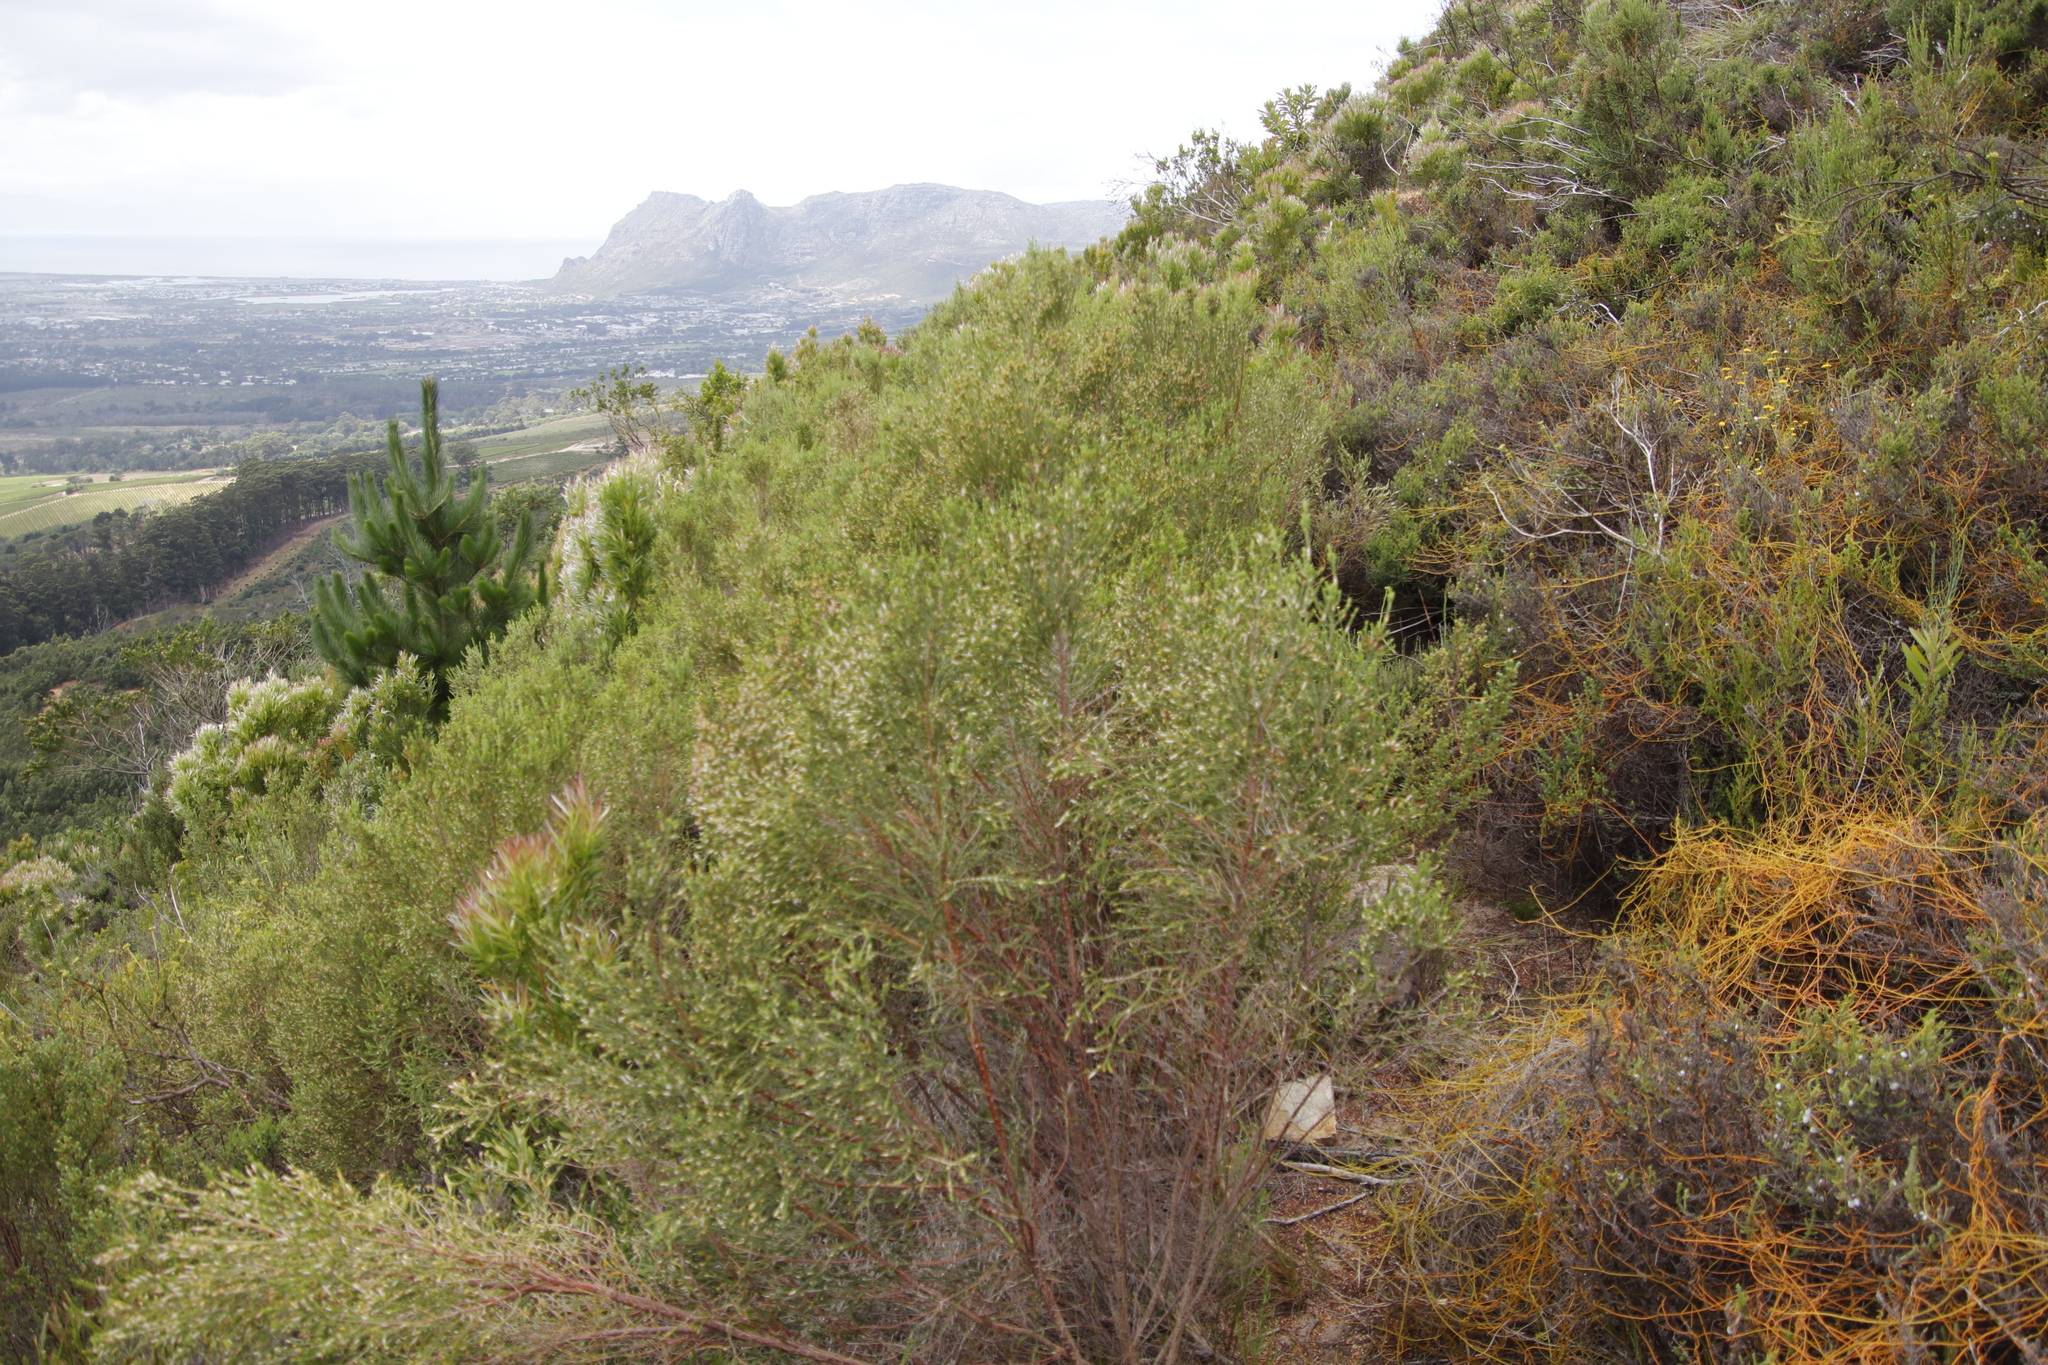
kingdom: Plantae
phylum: Tracheophyta
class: Magnoliopsida
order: Malvales
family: Thymelaeaceae
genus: Passerina
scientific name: Passerina corymbosa
